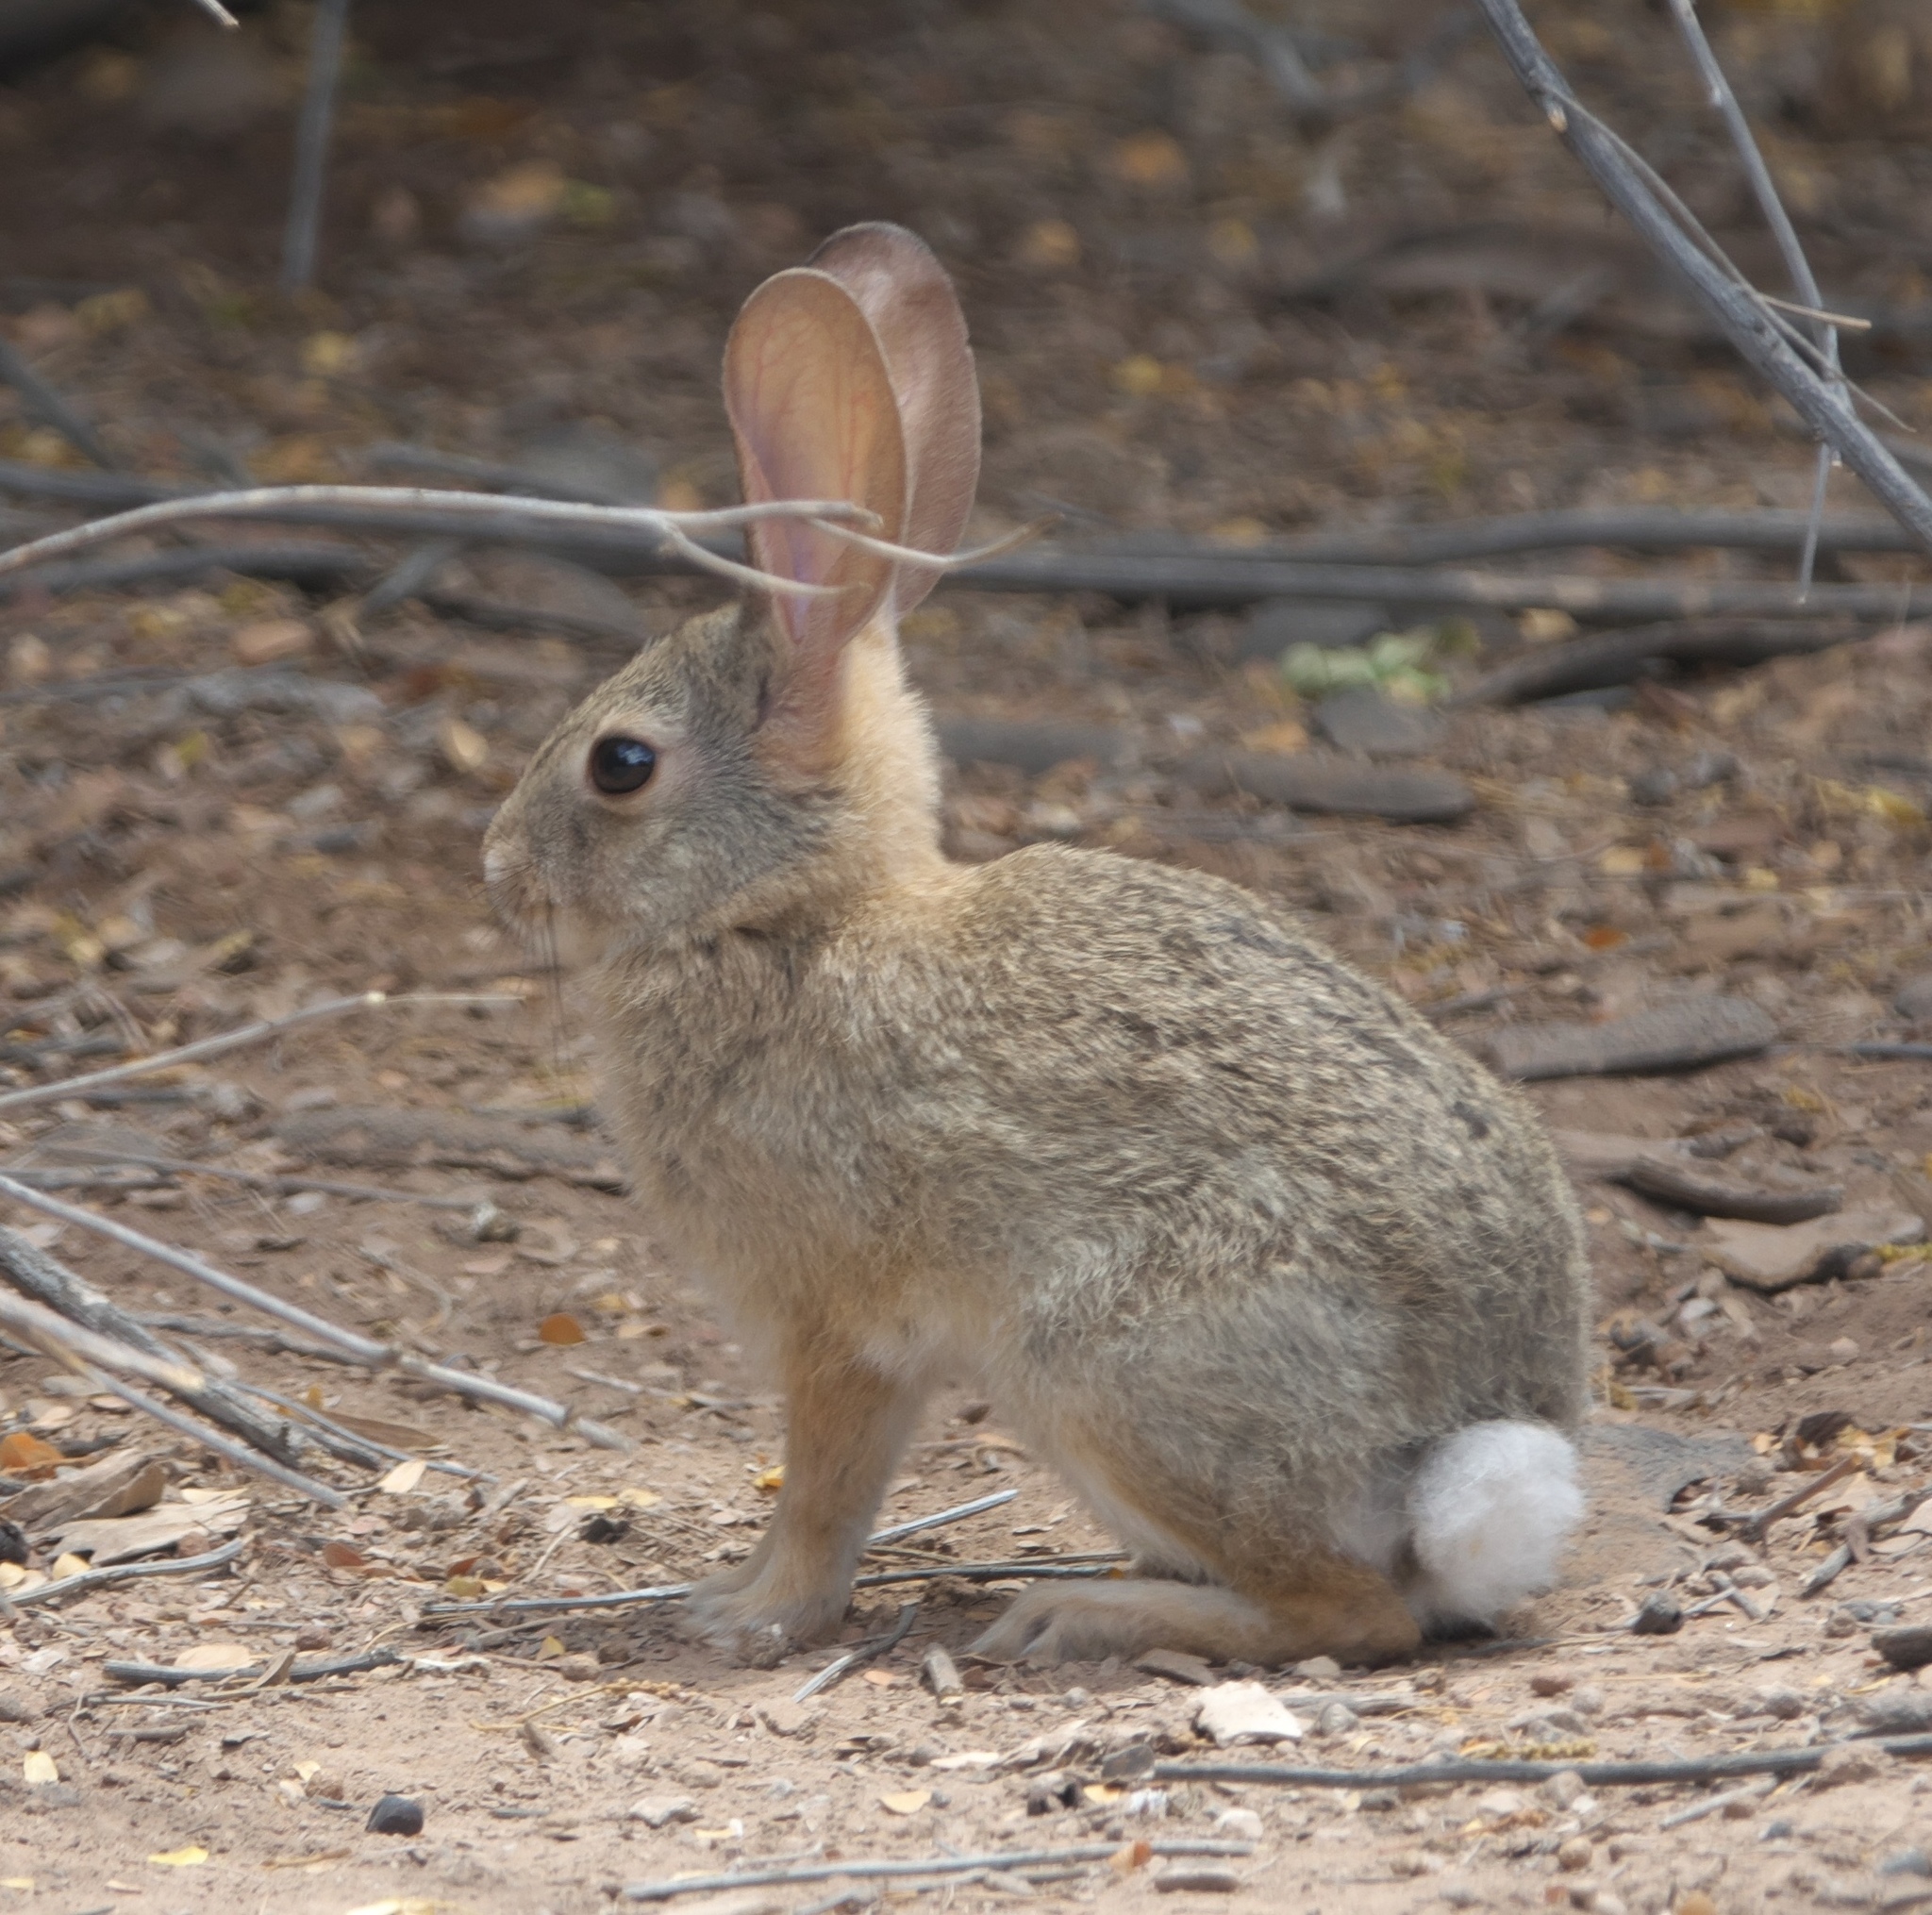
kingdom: Animalia
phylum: Chordata
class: Mammalia
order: Lagomorpha
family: Leporidae
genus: Sylvilagus
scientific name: Sylvilagus audubonii
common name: Desert cottontail
